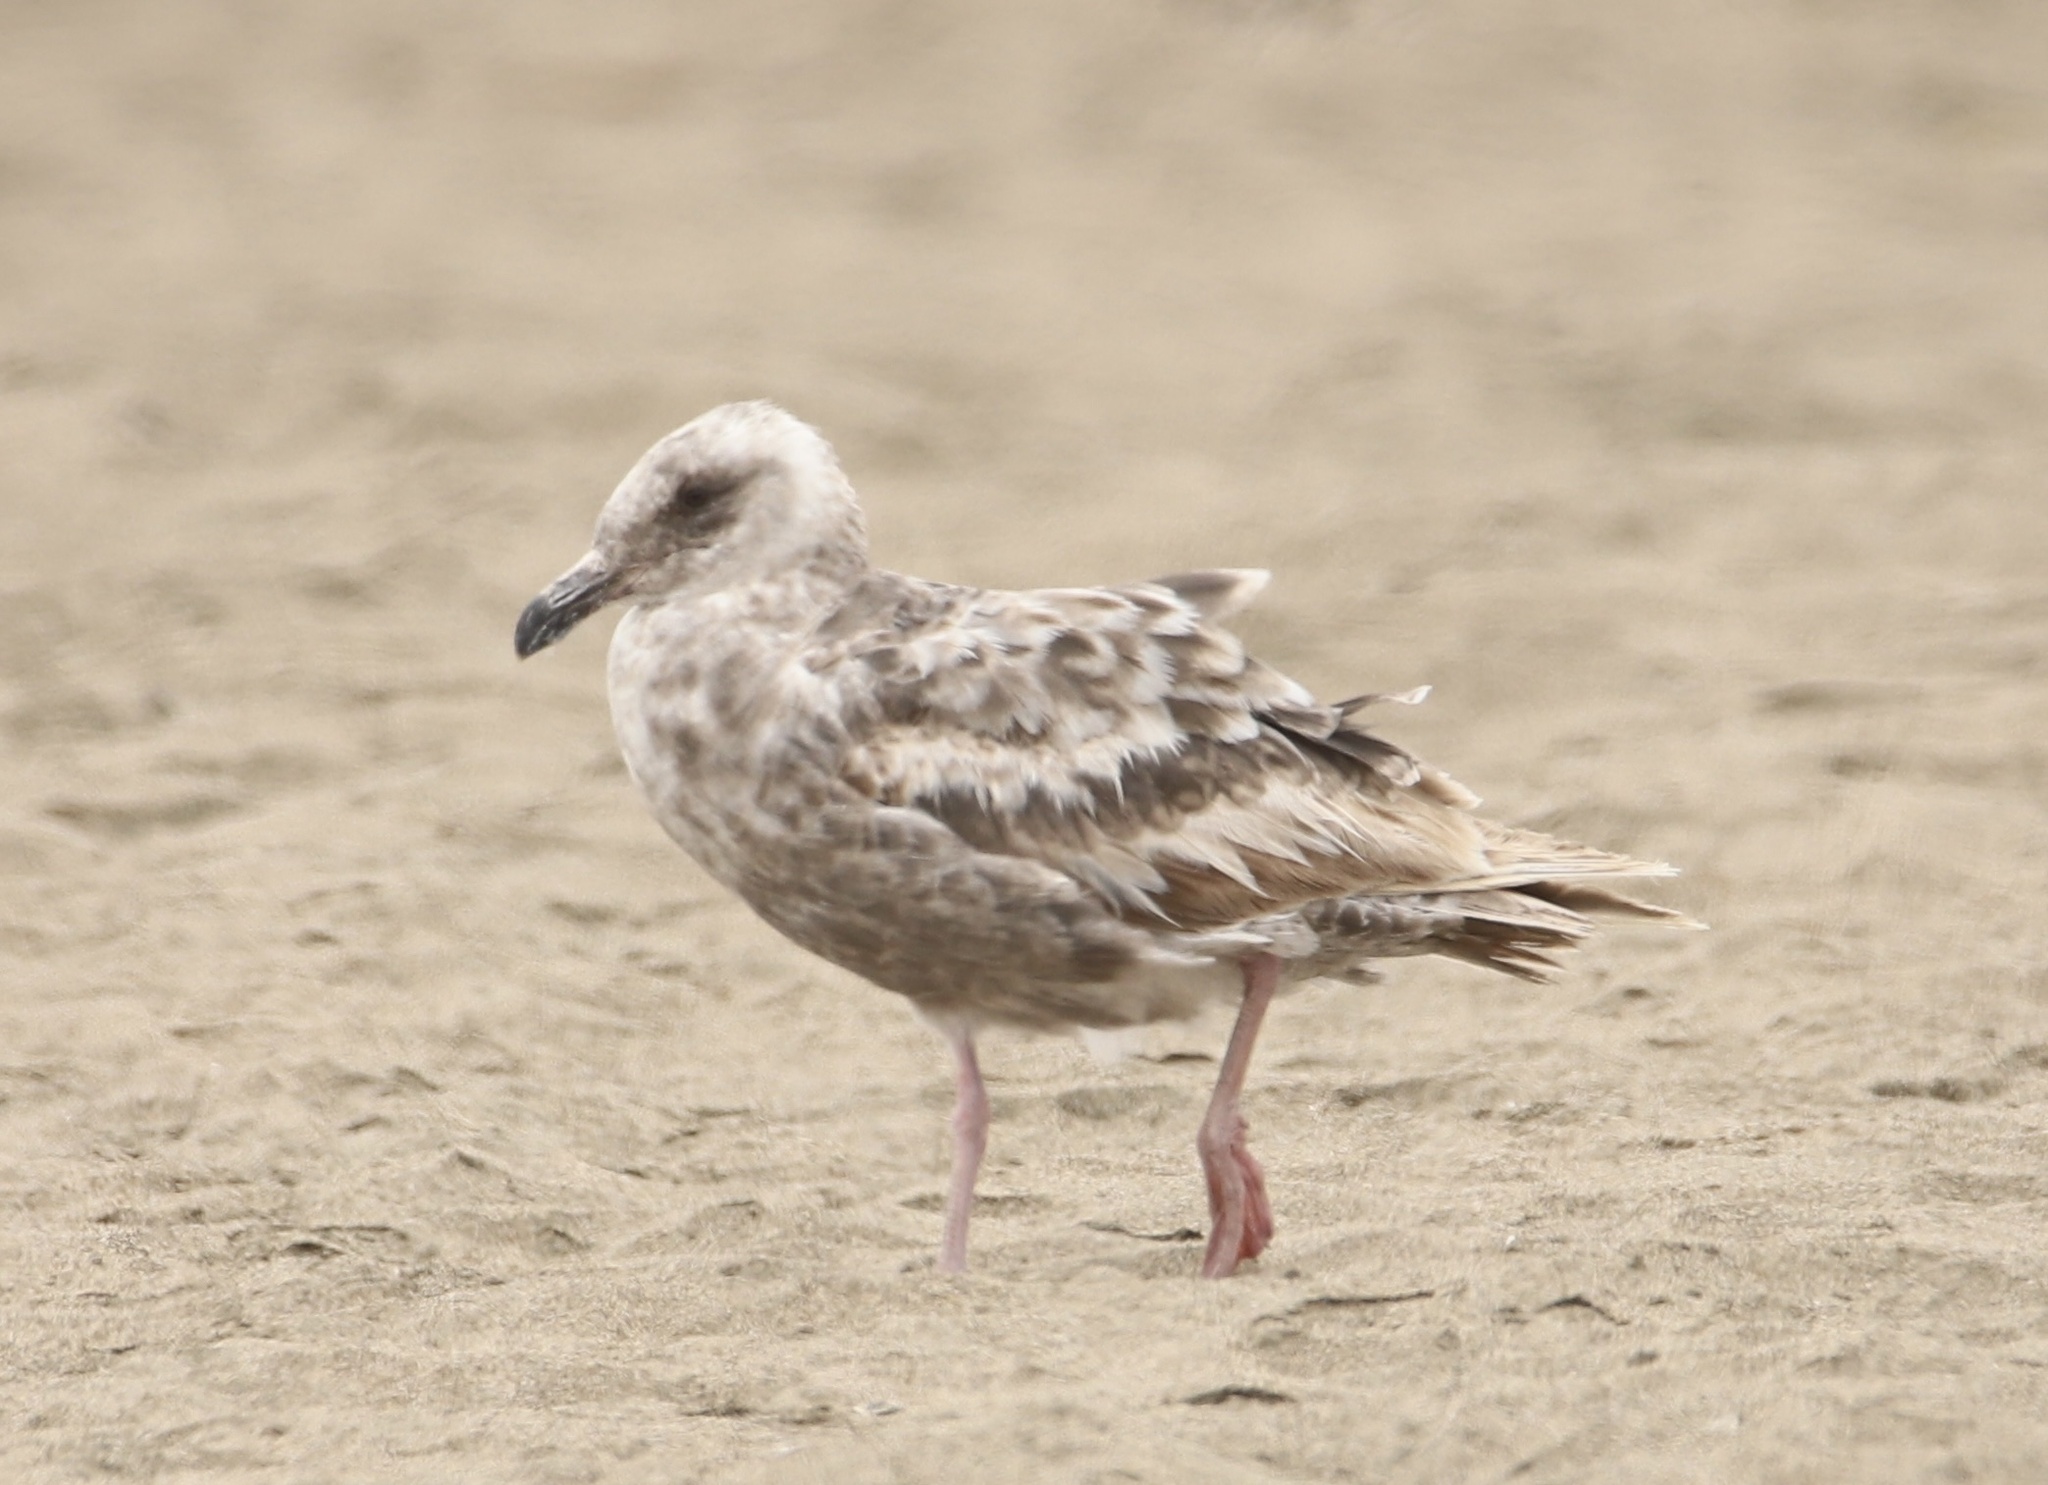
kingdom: Animalia
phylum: Chordata
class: Aves
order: Charadriiformes
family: Laridae
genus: Larus
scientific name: Larus occidentalis
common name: Western gull
